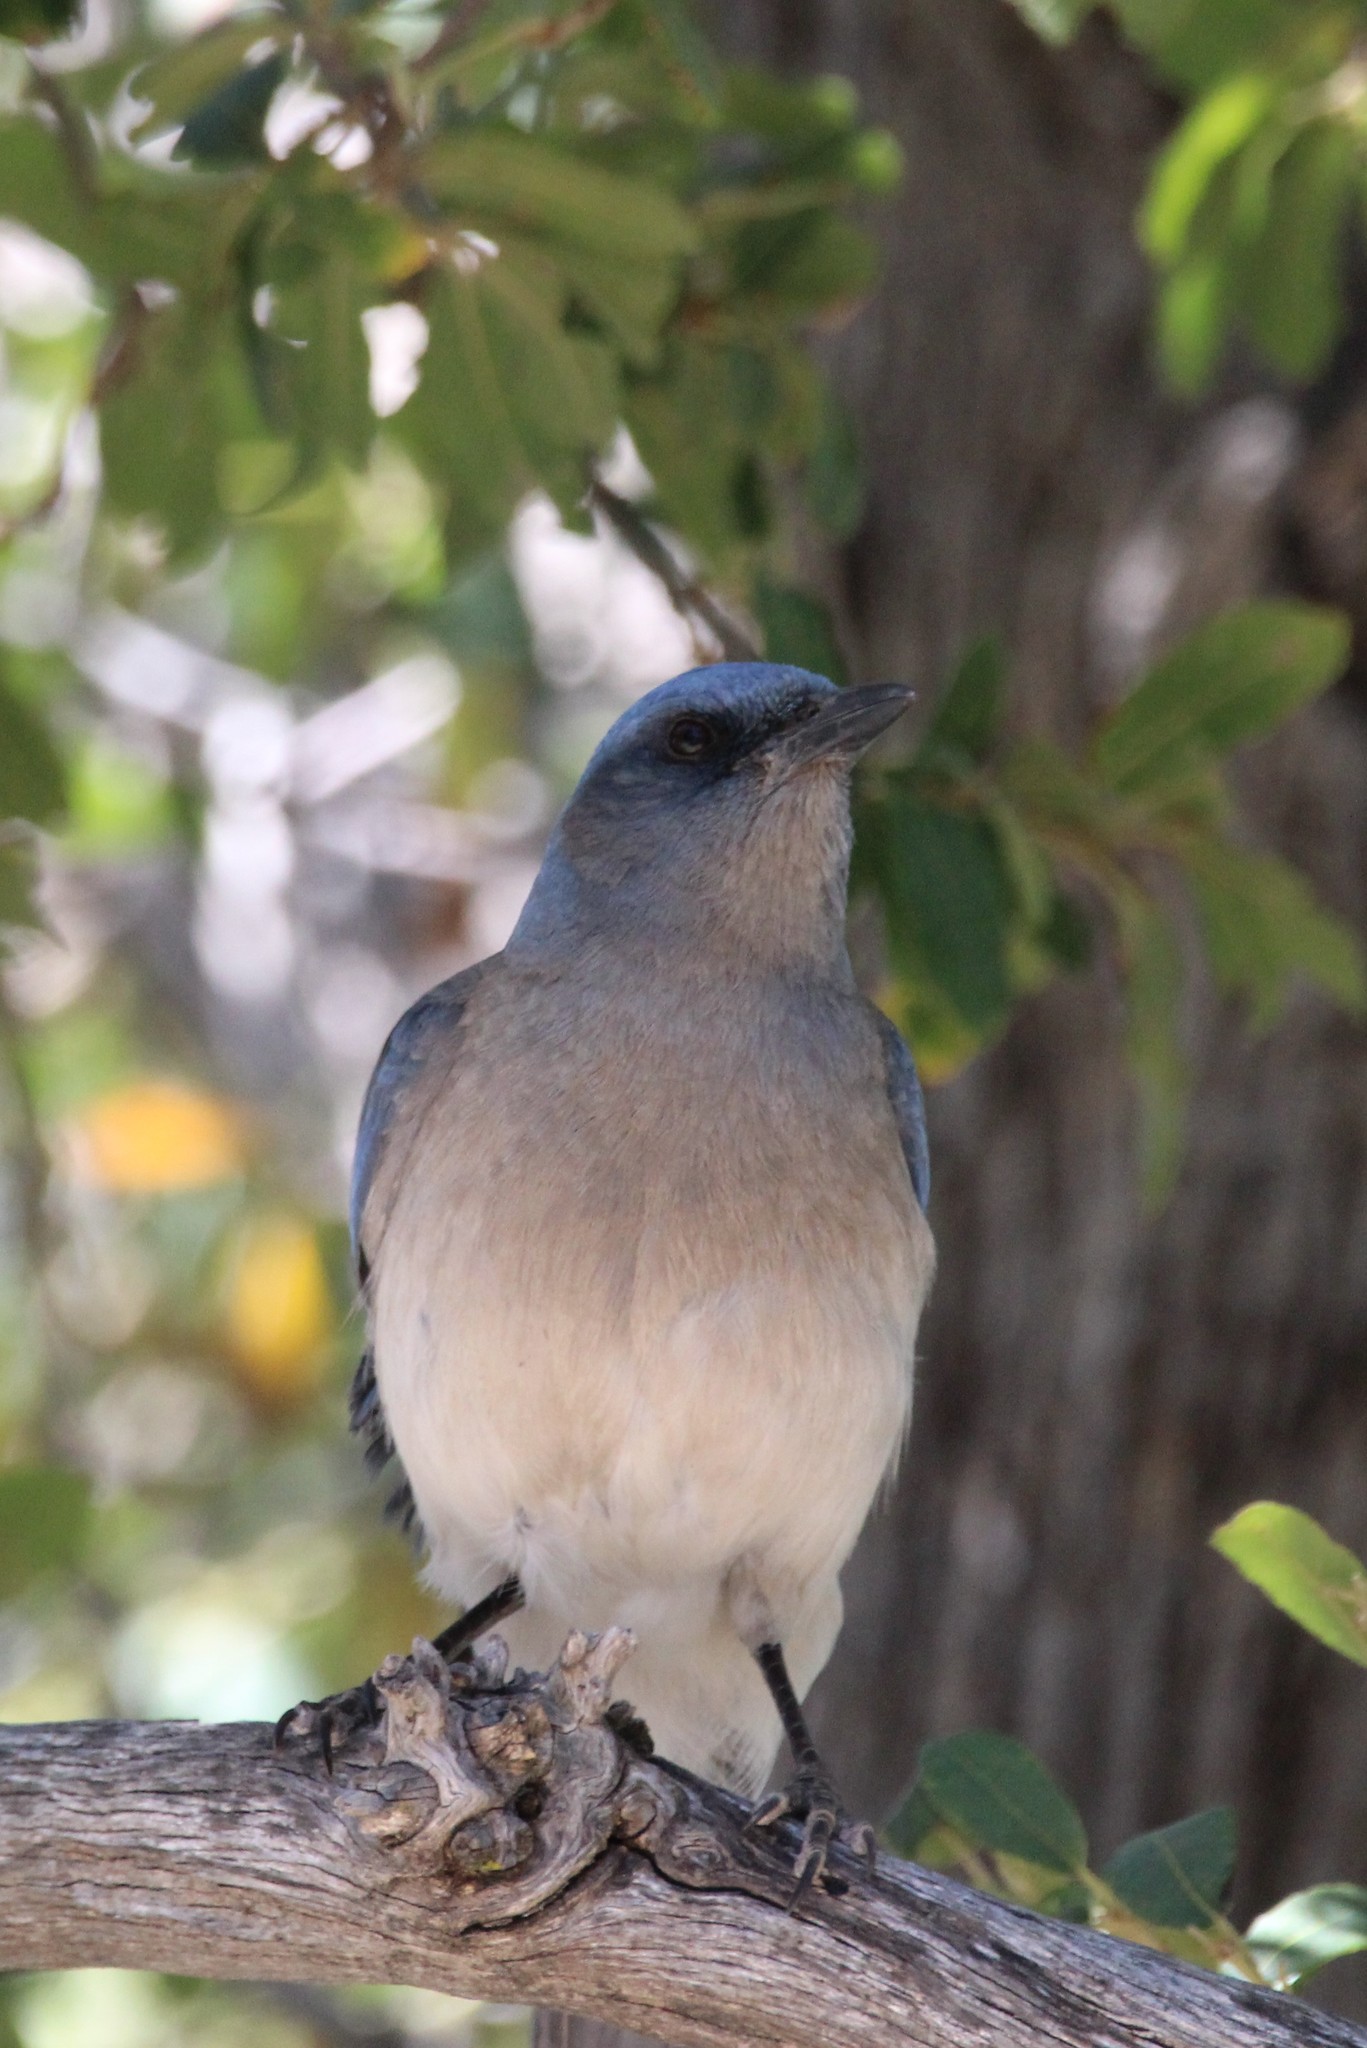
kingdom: Animalia
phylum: Chordata
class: Aves
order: Passeriformes
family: Corvidae
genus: Aphelocoma
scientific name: Aphelocoma wollweberi
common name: Mexican jay
